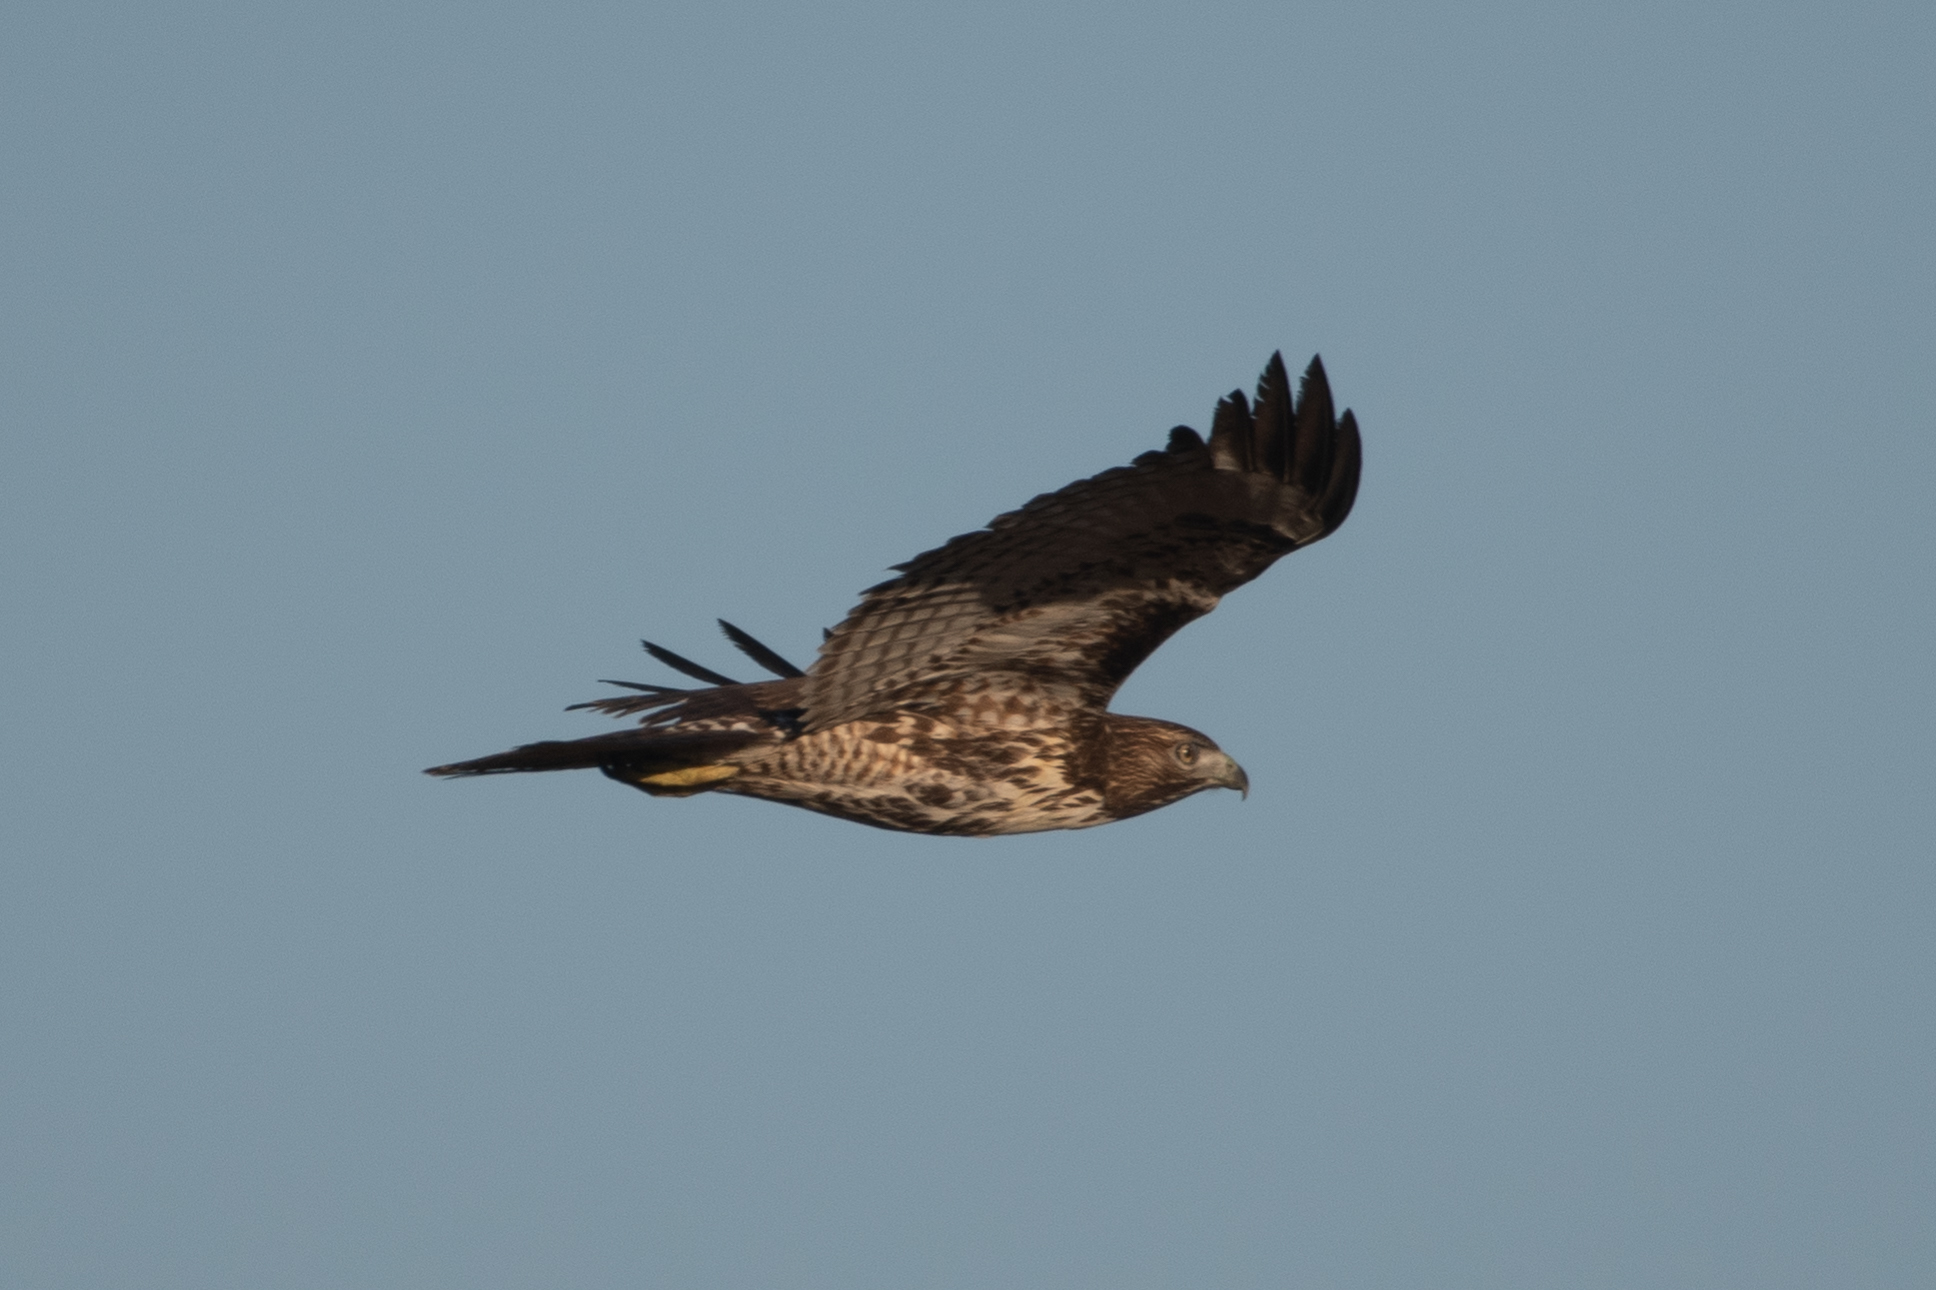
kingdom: Animalia
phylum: Chordata
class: Aves
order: Accipitriformes
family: Accipitridae
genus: Buteo
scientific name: Buteo jamaicensis
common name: Red-tailed hawk
